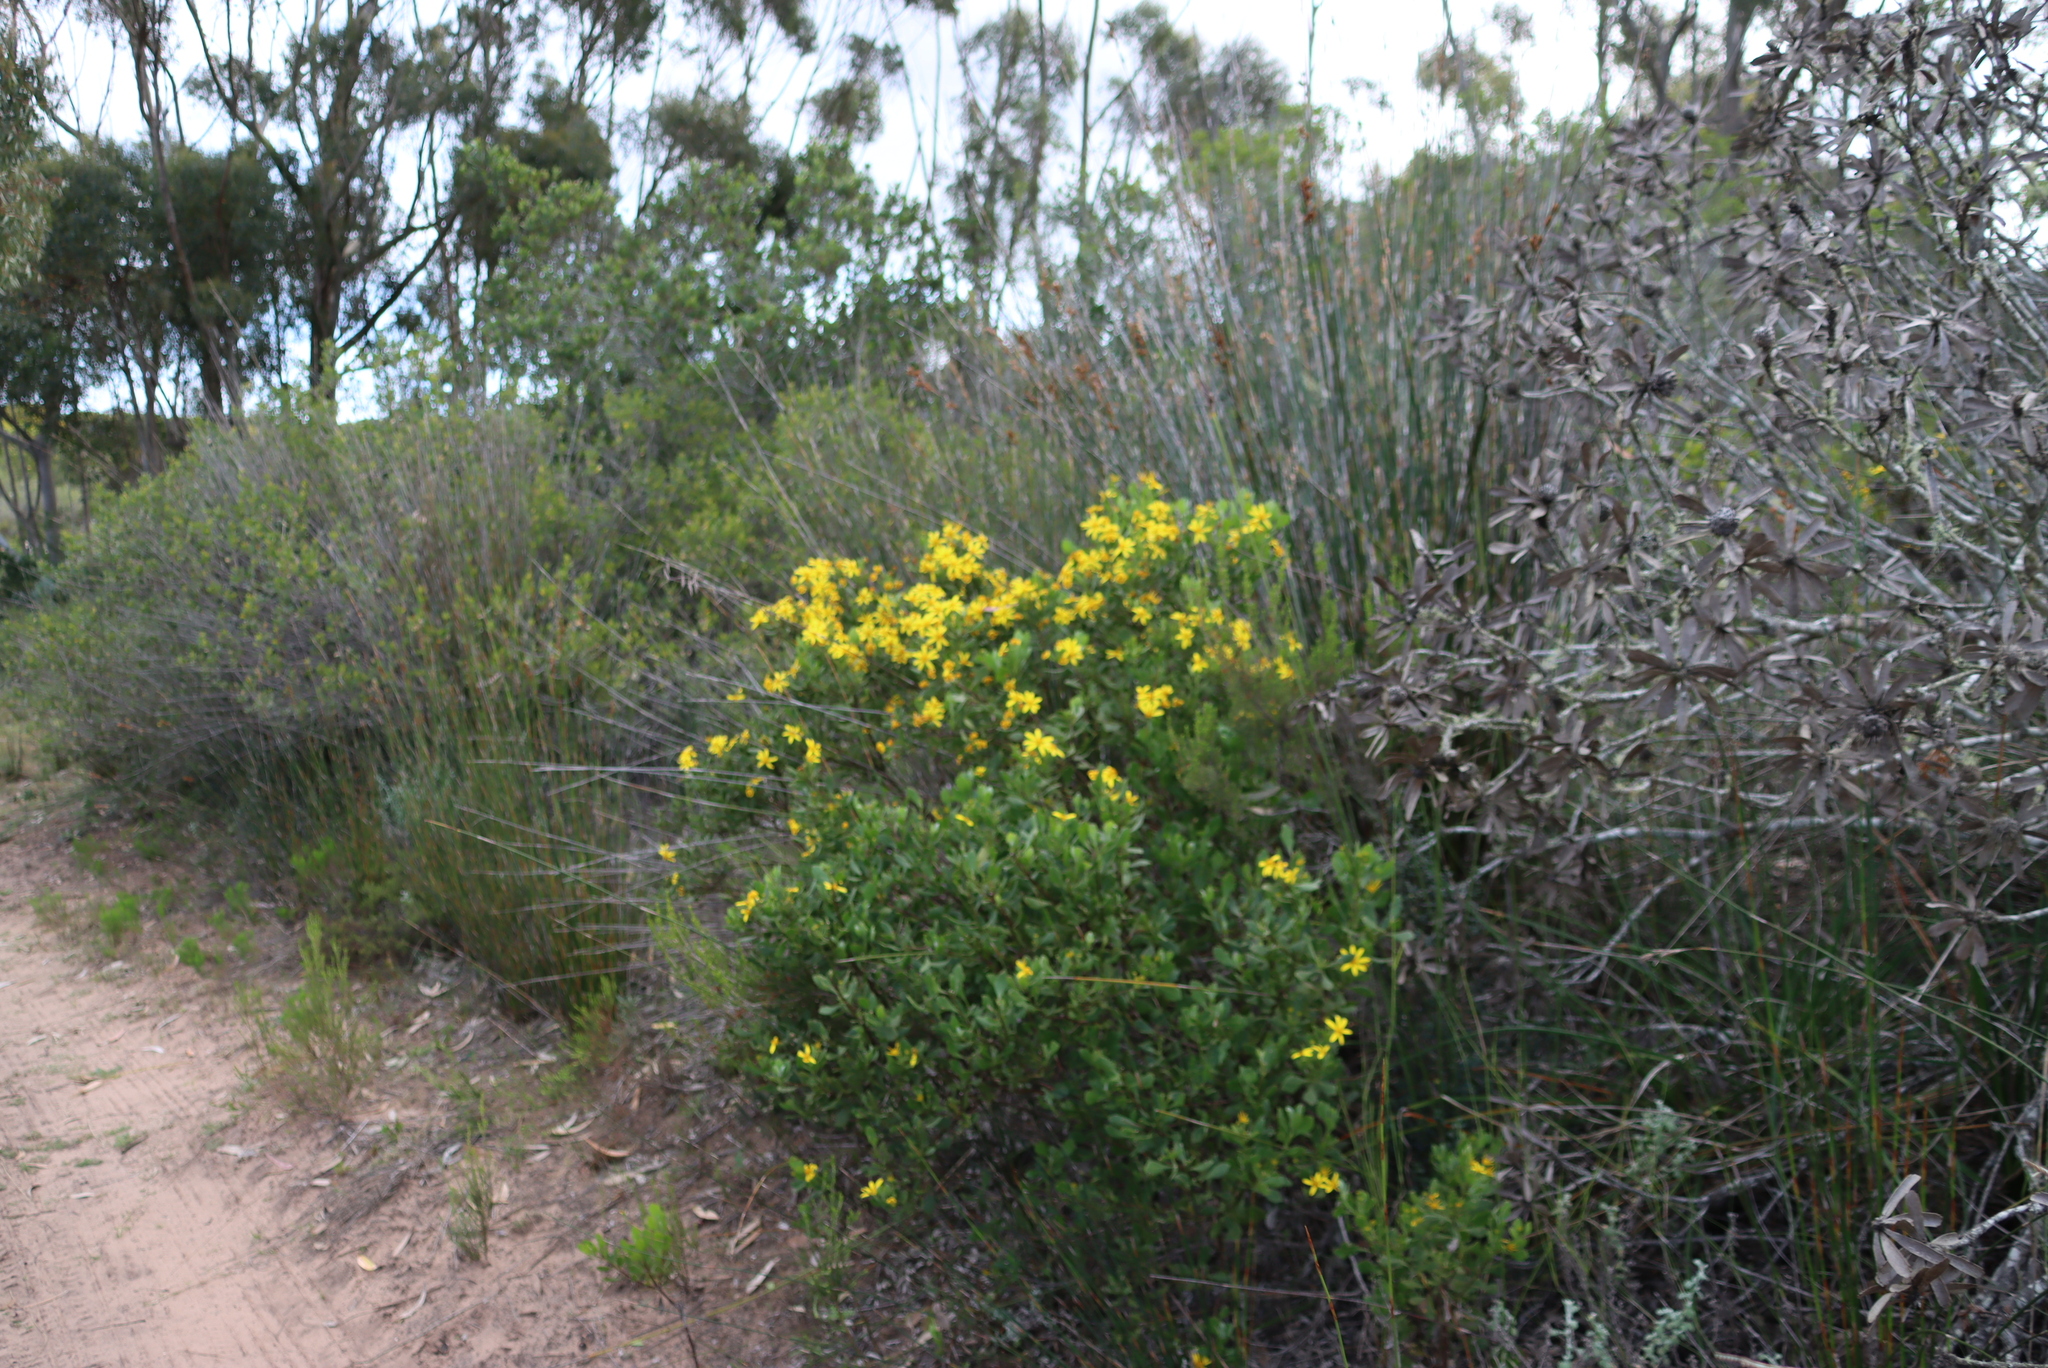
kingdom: Plantae
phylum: Tracheophyta
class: Magnoliopsida
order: Asterales
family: Asteraceae
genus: Osteospermum
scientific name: Osteospermum moniliferum
